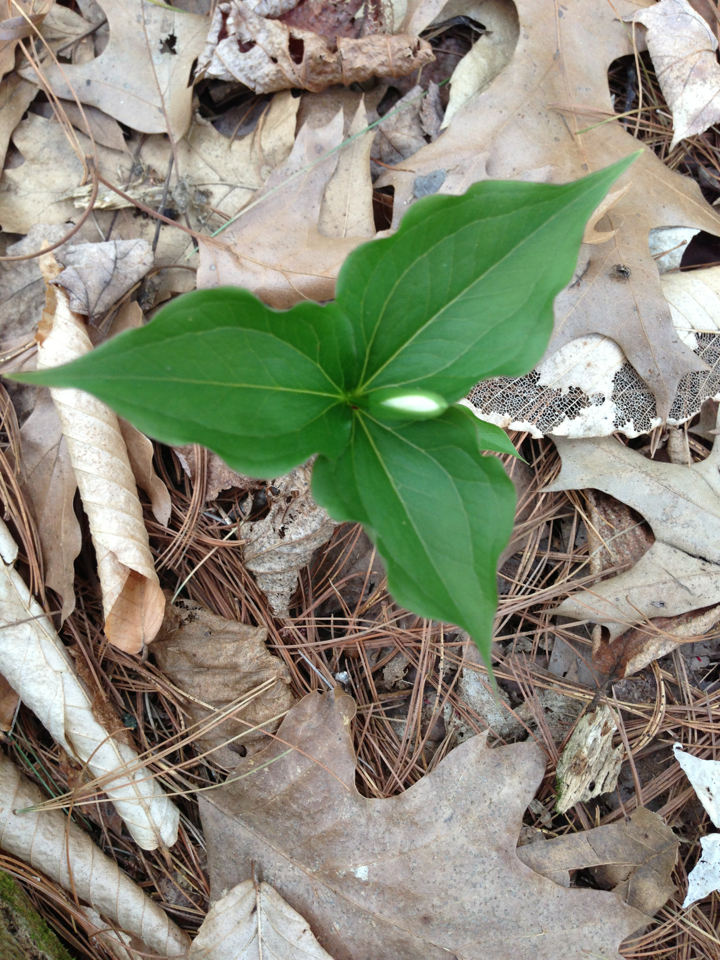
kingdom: Plantae
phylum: Tracheophyta
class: Liliopsida
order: Liliales
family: Melanthiaceae
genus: Trillium
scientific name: Trillium grandiflorum
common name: Great white trillium
